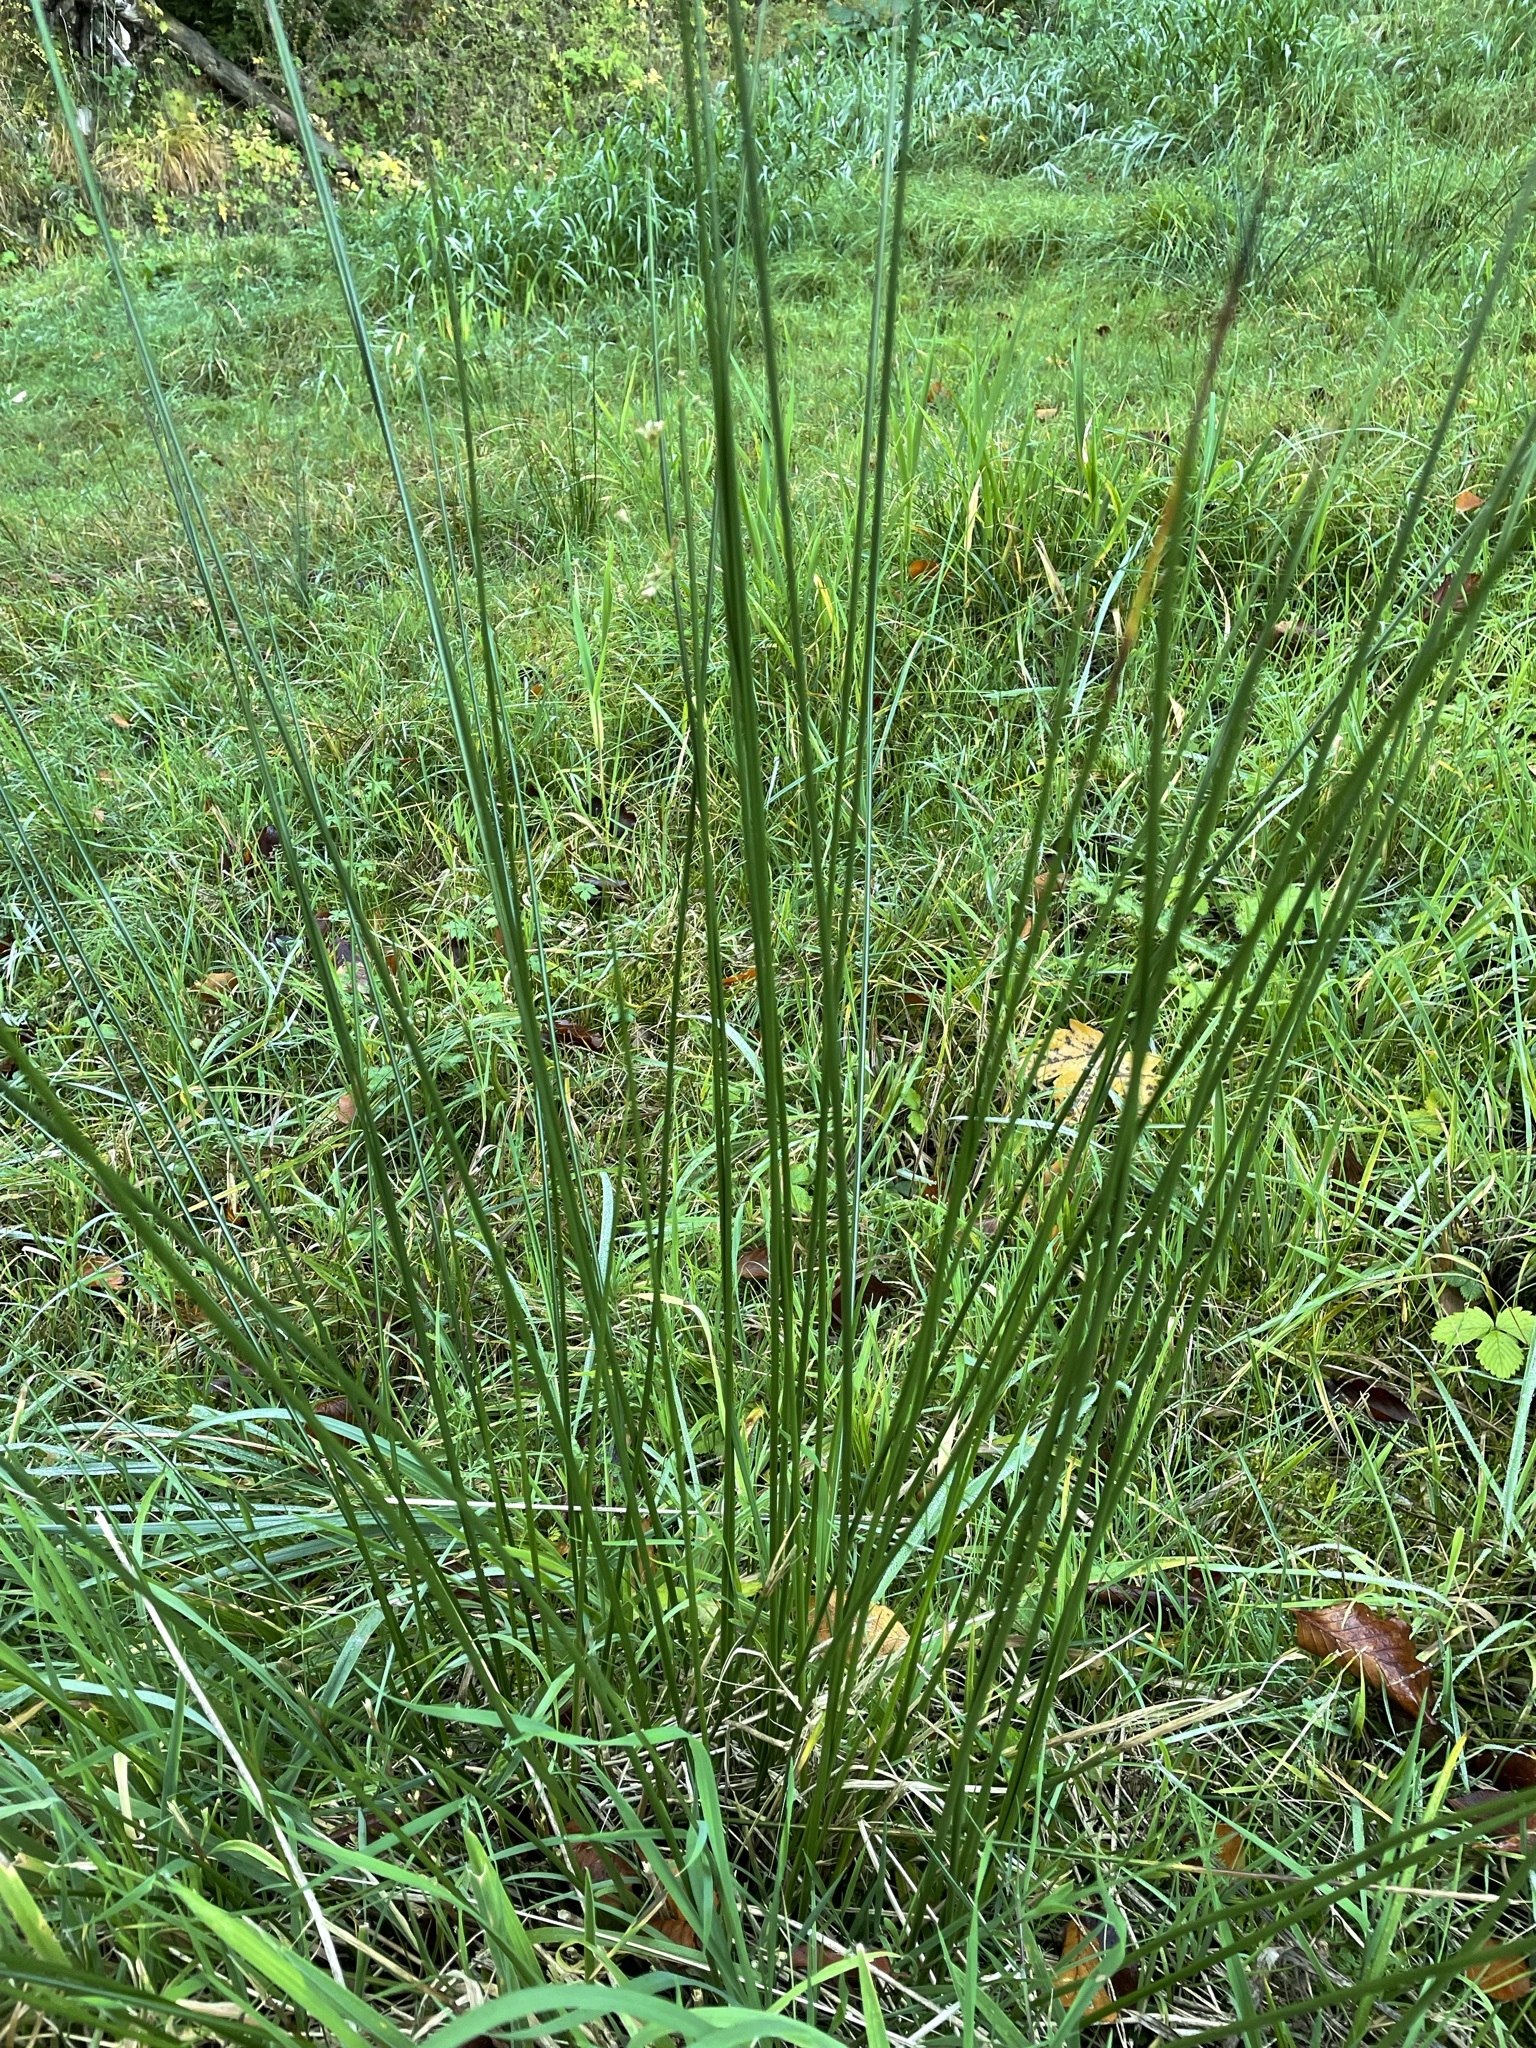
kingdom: Plantae
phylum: Tracheophyta
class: Liliopsida
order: Poales
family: Juncaceae
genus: Juncus
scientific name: Juncus effusus
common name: Soft rush
